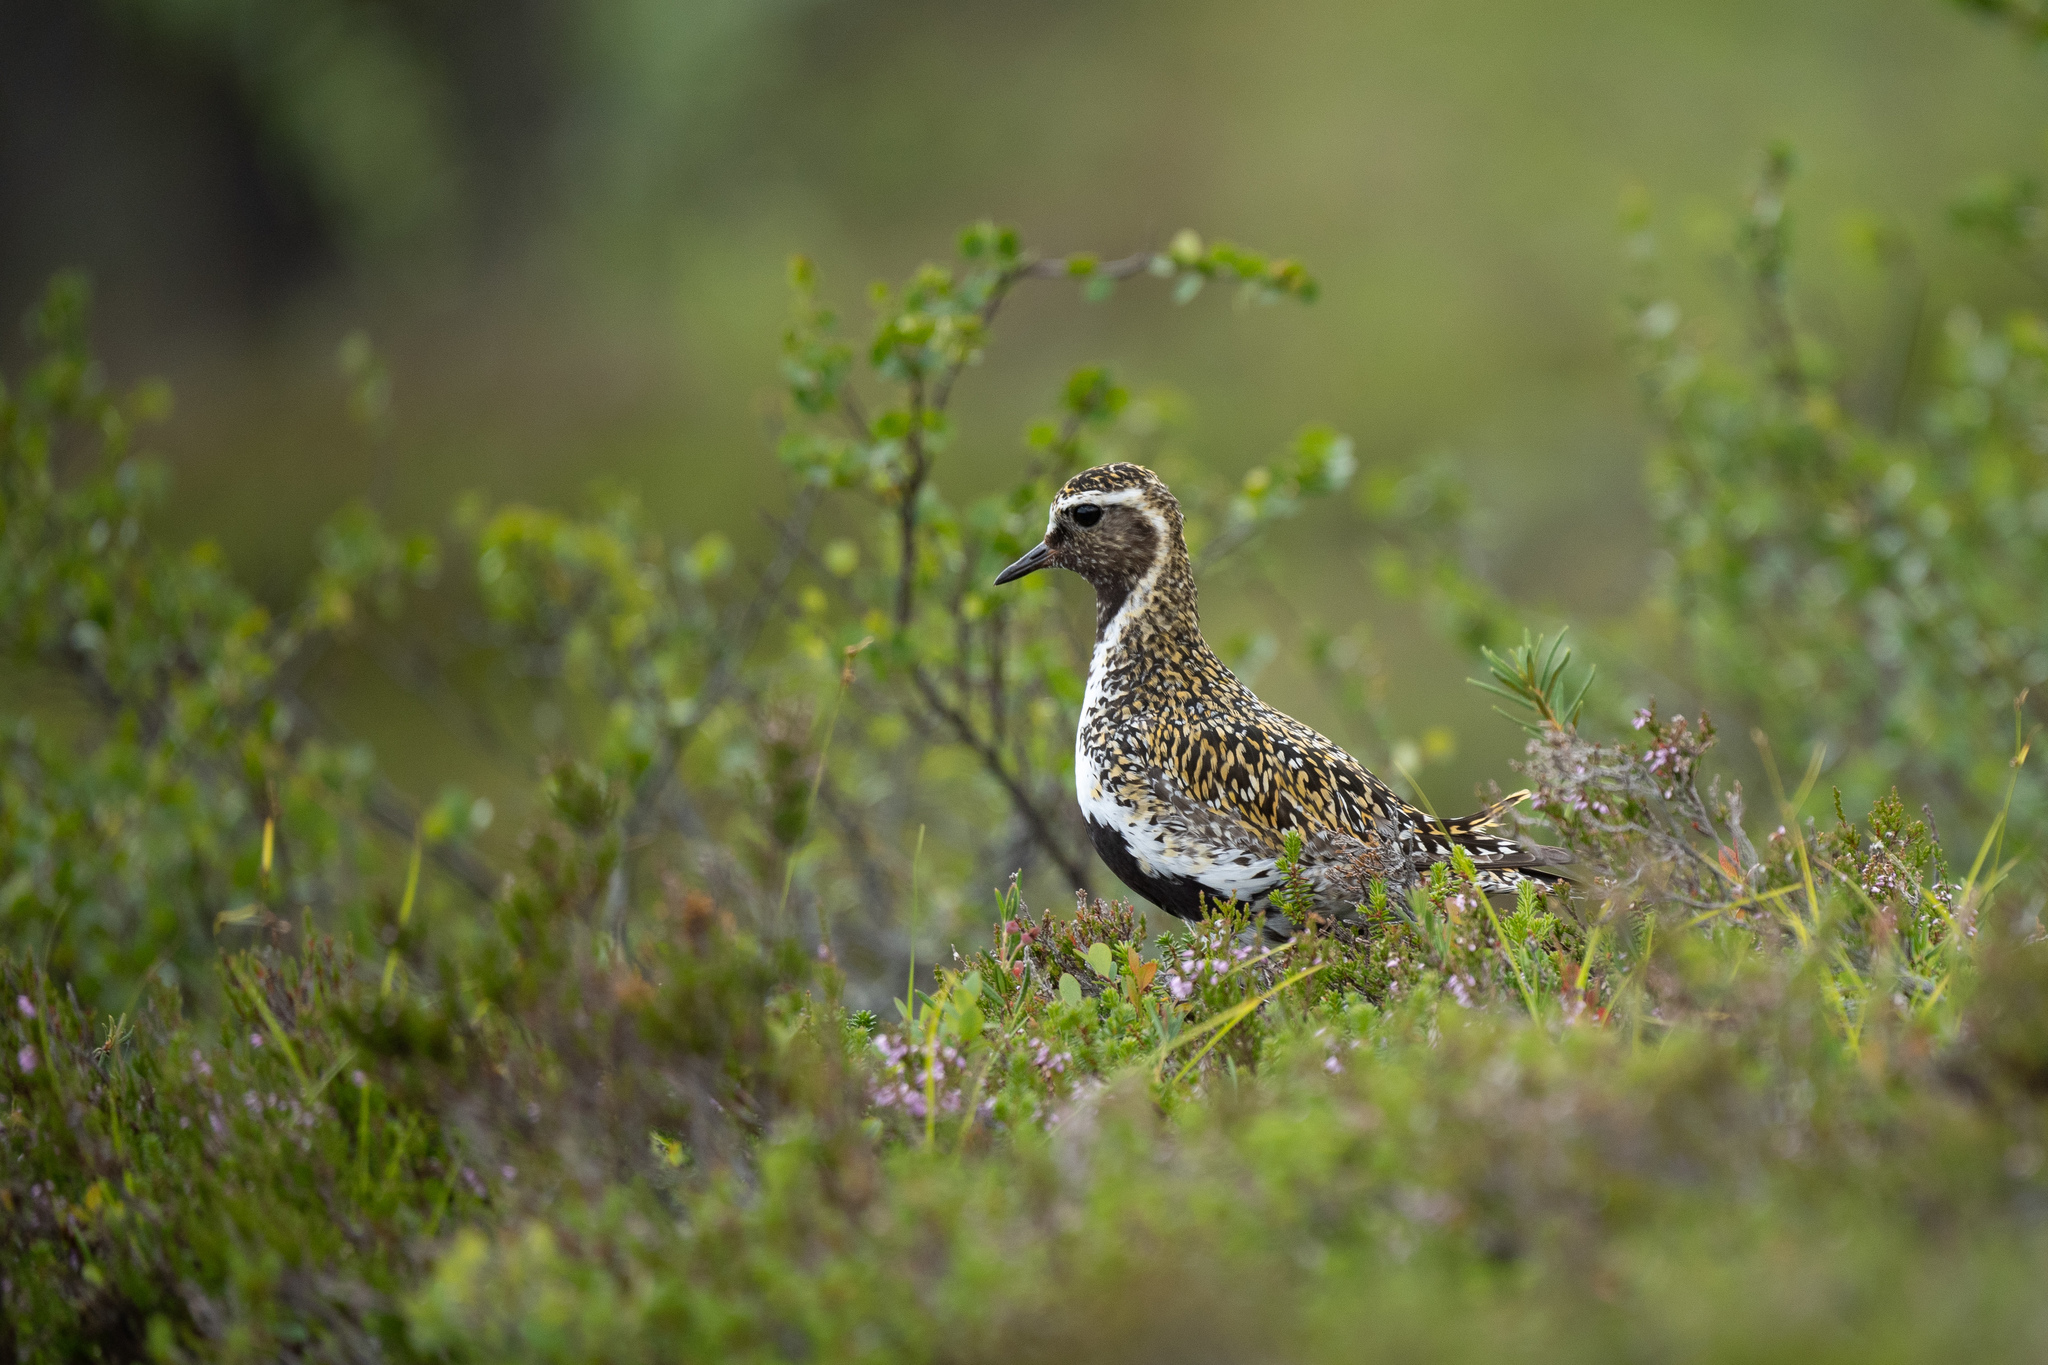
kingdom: Animalia
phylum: Chordata
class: Aves
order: Charadriiformes
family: Charadriidae
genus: Pluvialis
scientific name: Pluvialis apricaria
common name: European golden plover
